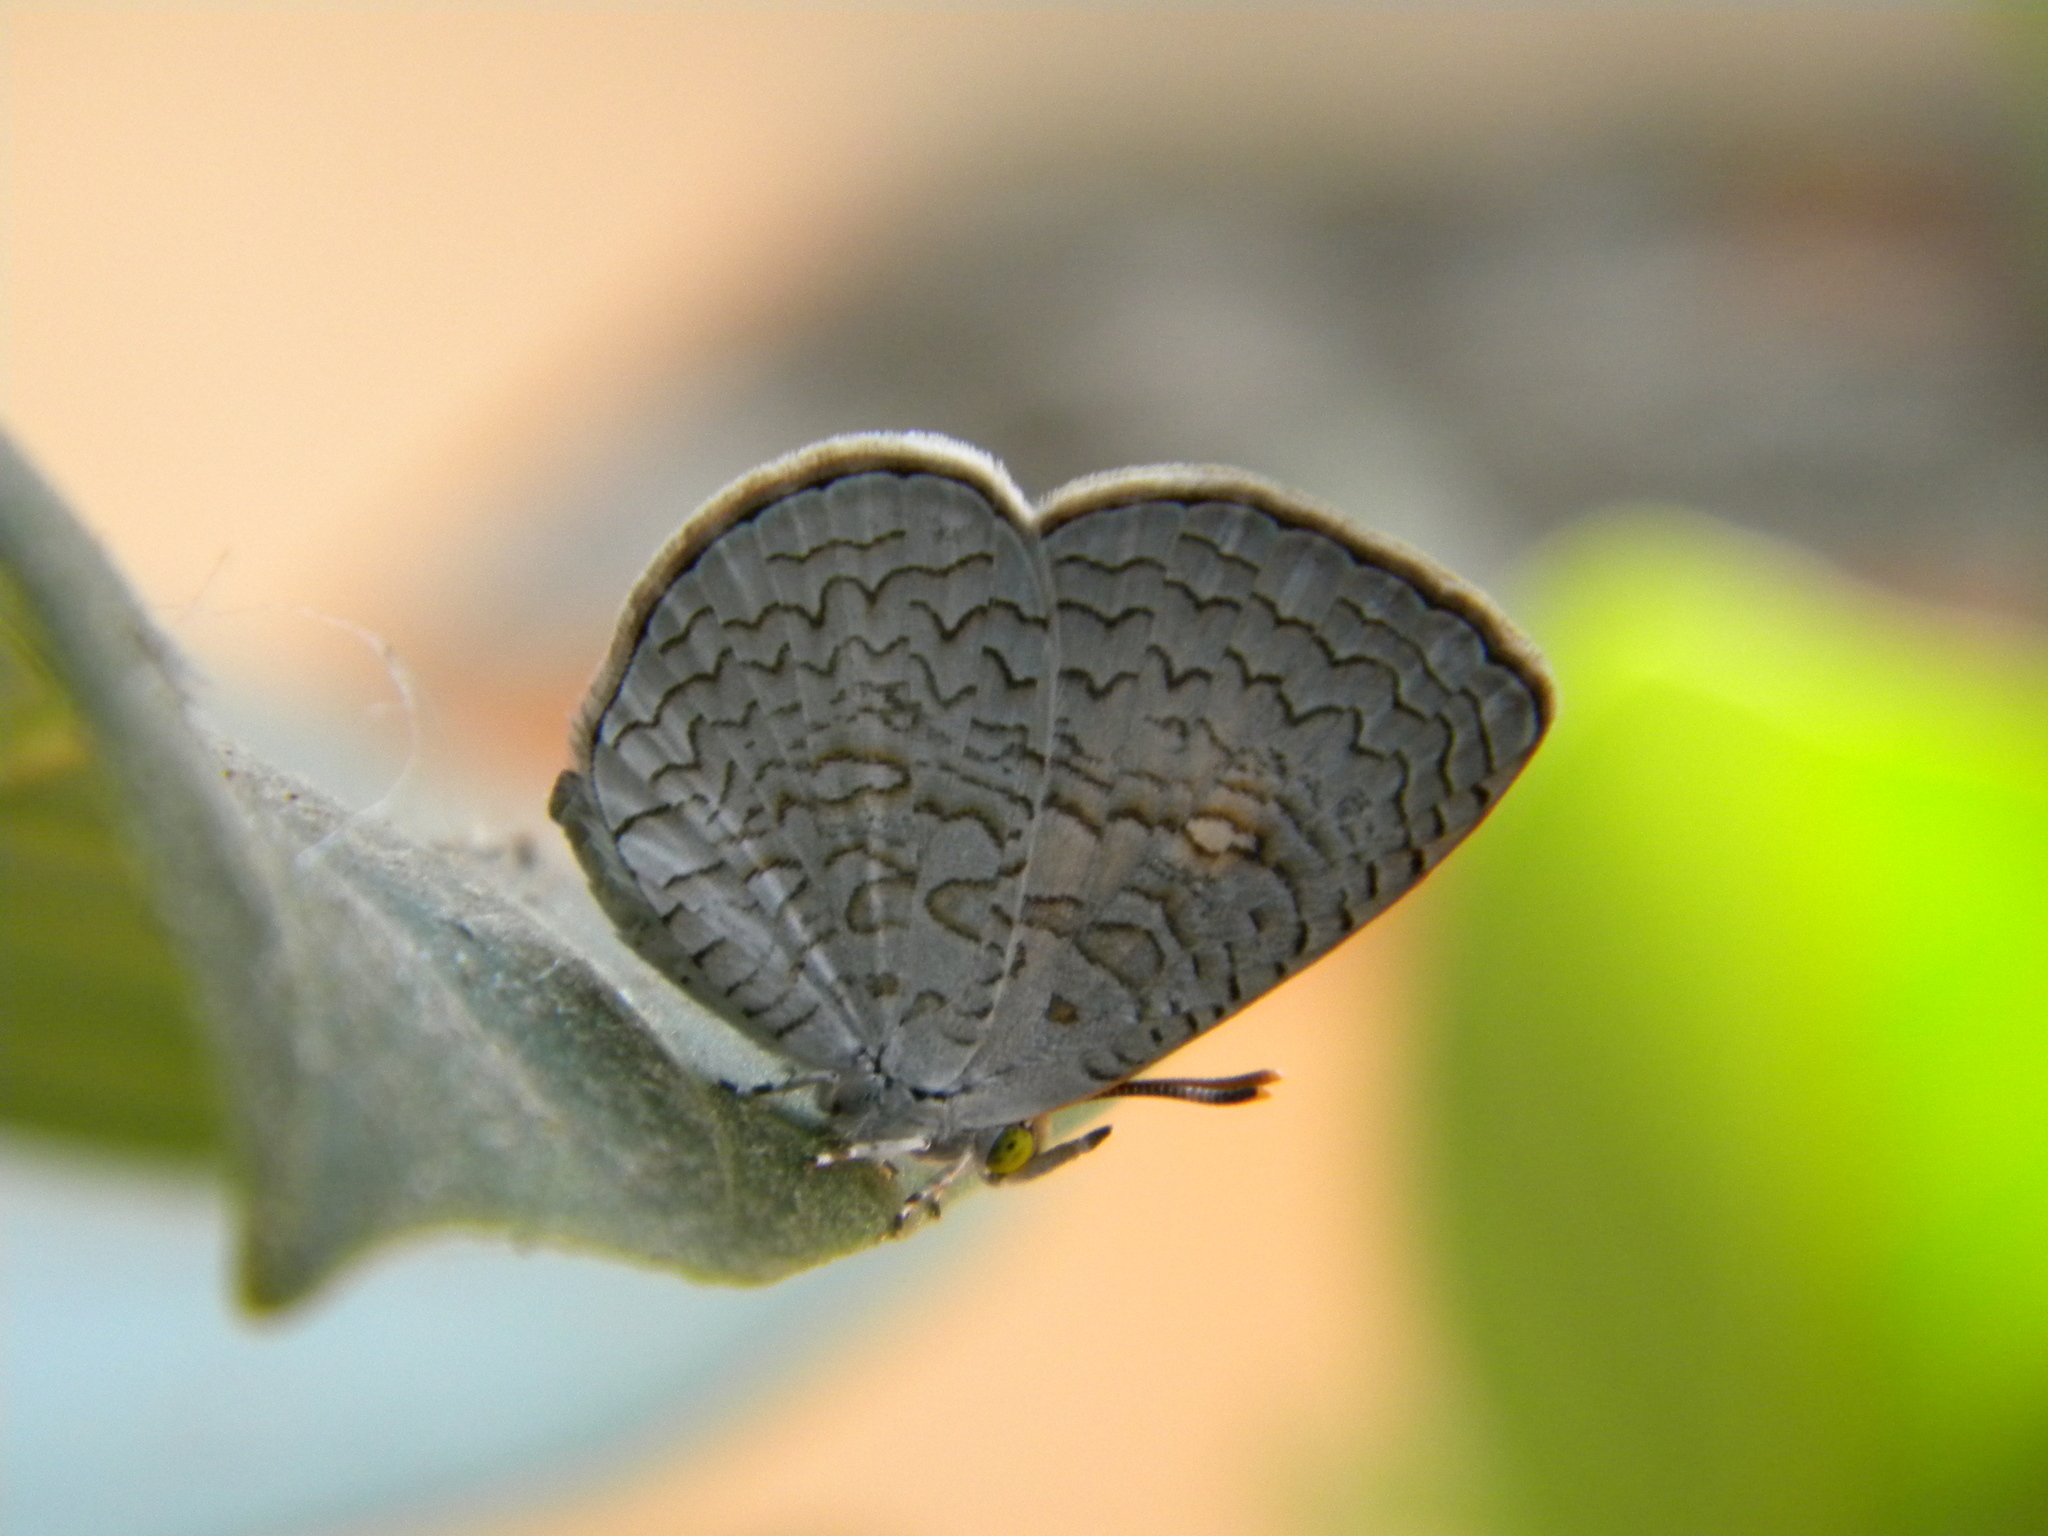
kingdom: Animalia
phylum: Arthropoda
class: Insecta
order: Lepidoptera
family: Lycaenidae
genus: Spalgis
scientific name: Spalgis epius
